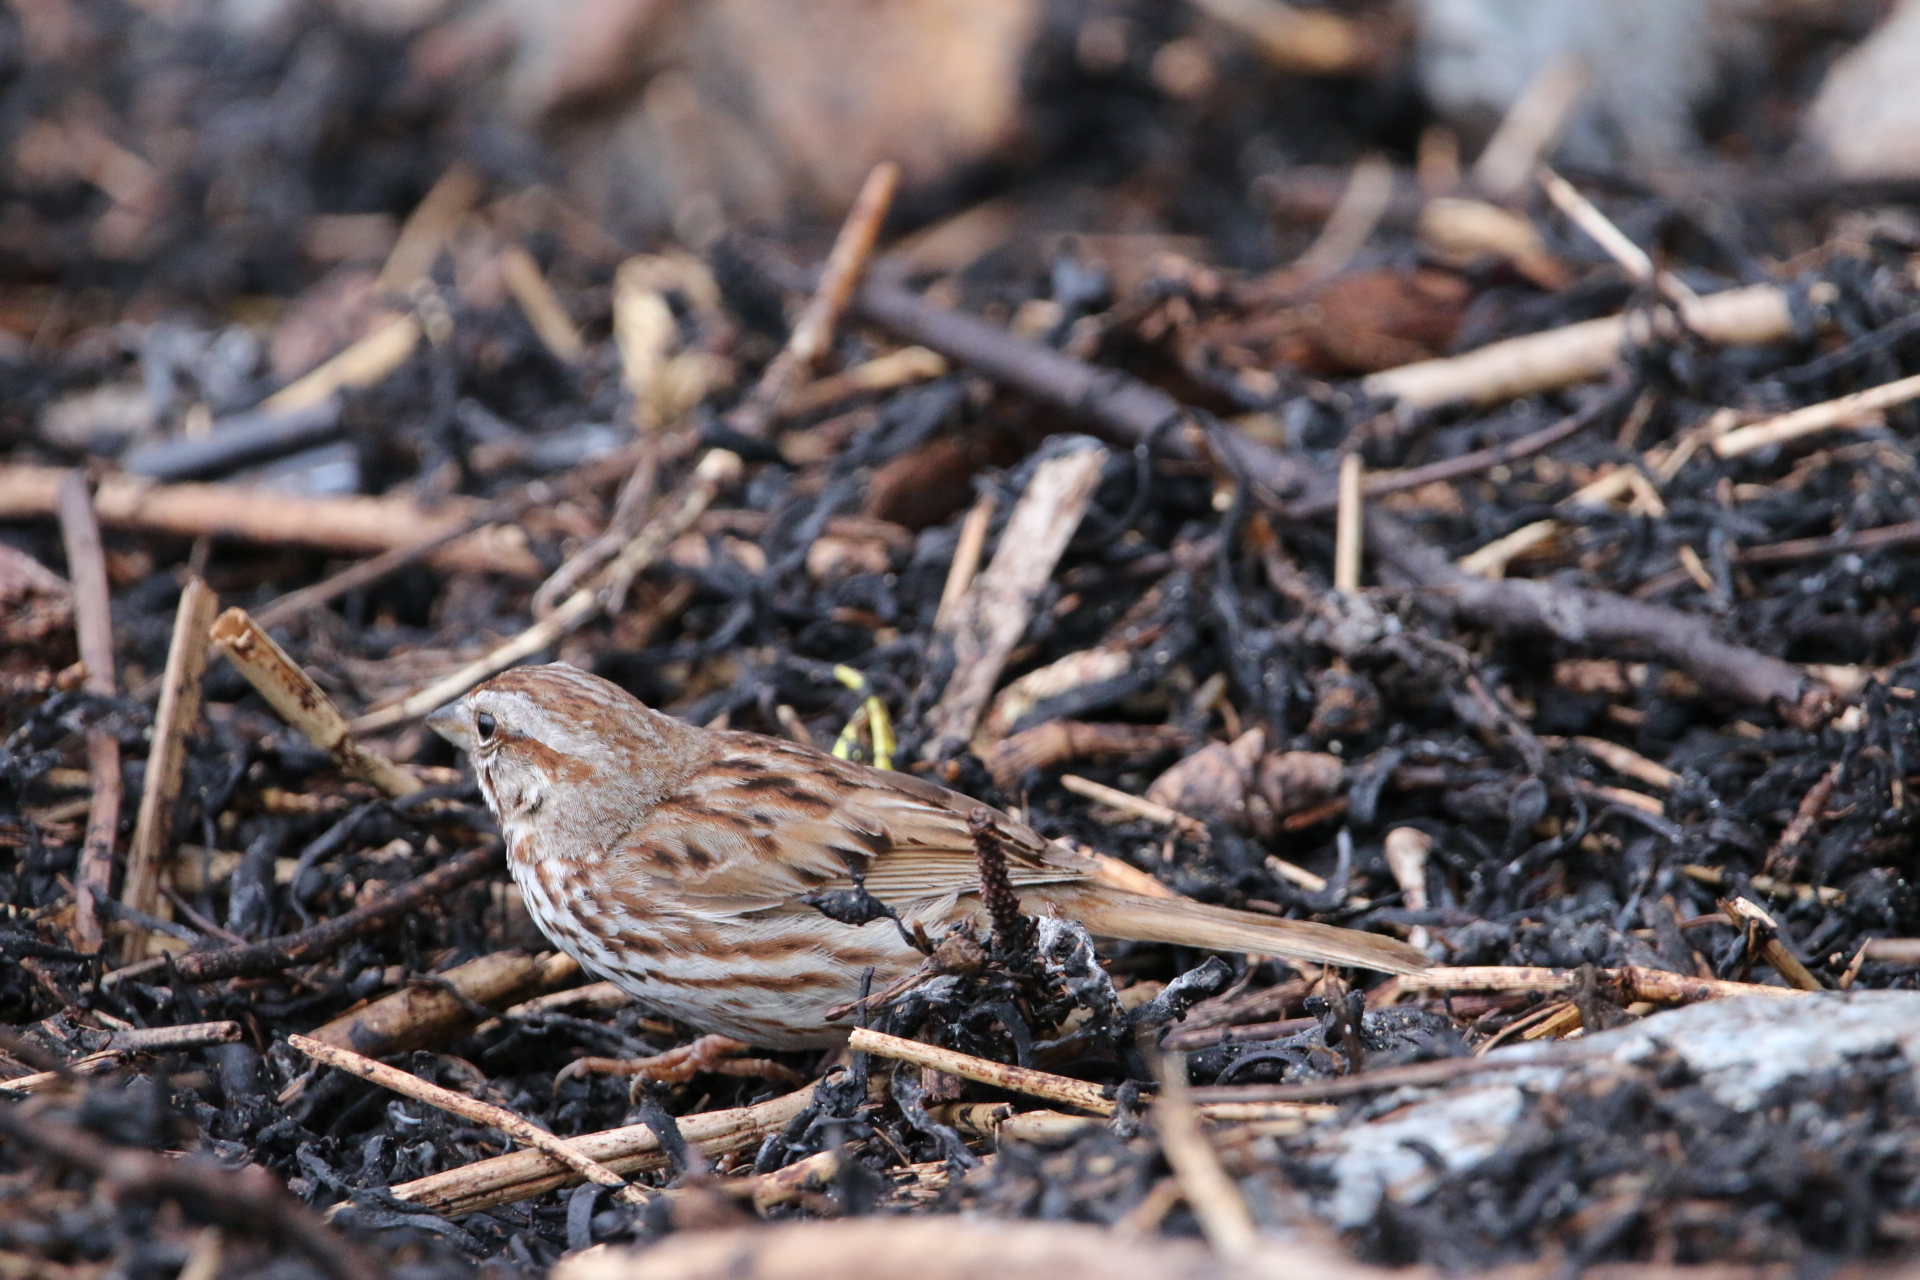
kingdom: Animalia
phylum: Chordata
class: Aves
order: Passeriformes
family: Passerellidae
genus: Melospiza
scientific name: Melospiza melodia
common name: Song sparrow
